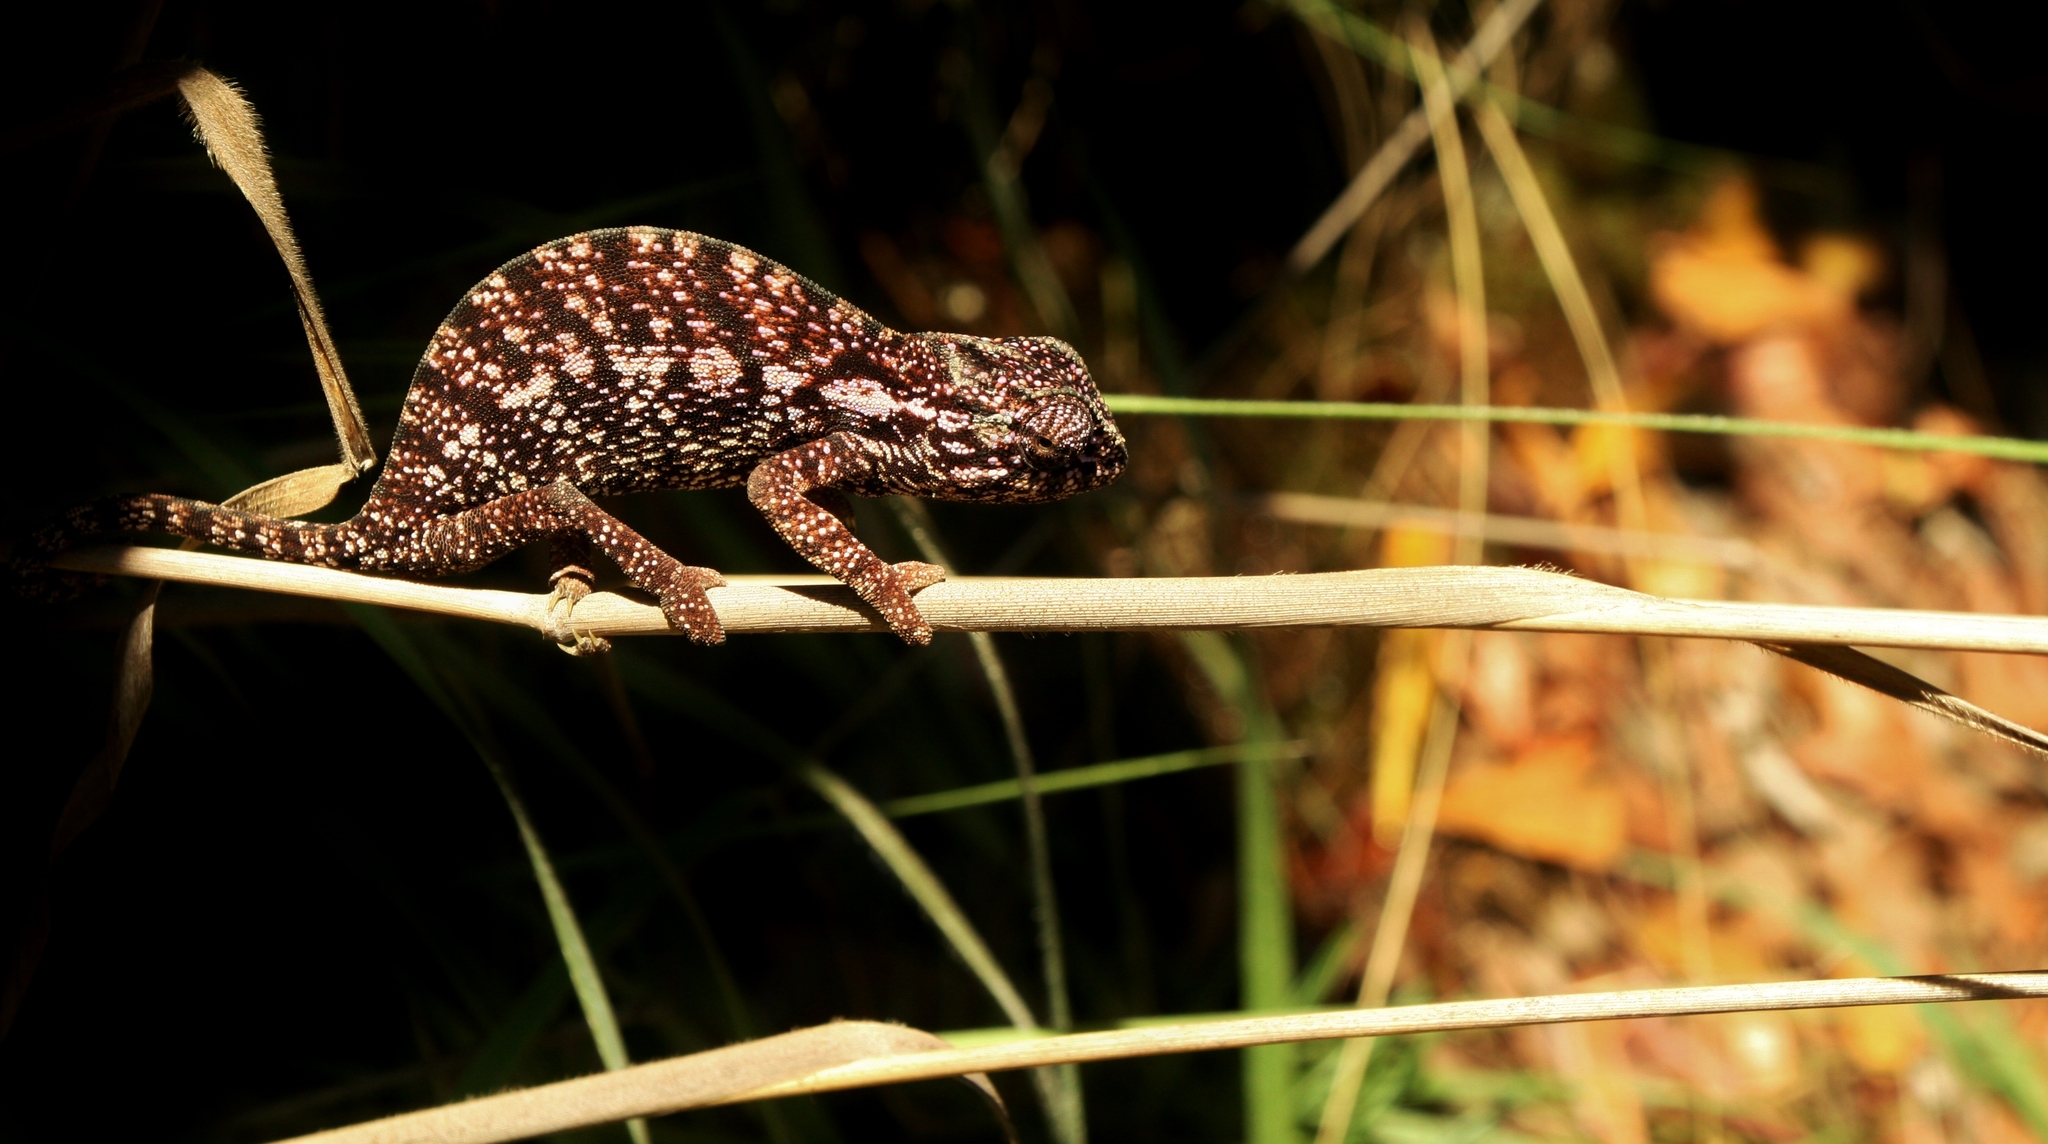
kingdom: Animalia
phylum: Chordata
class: Squamata
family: Chamaeleonidae
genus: Furcifer
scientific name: Furcifer major
